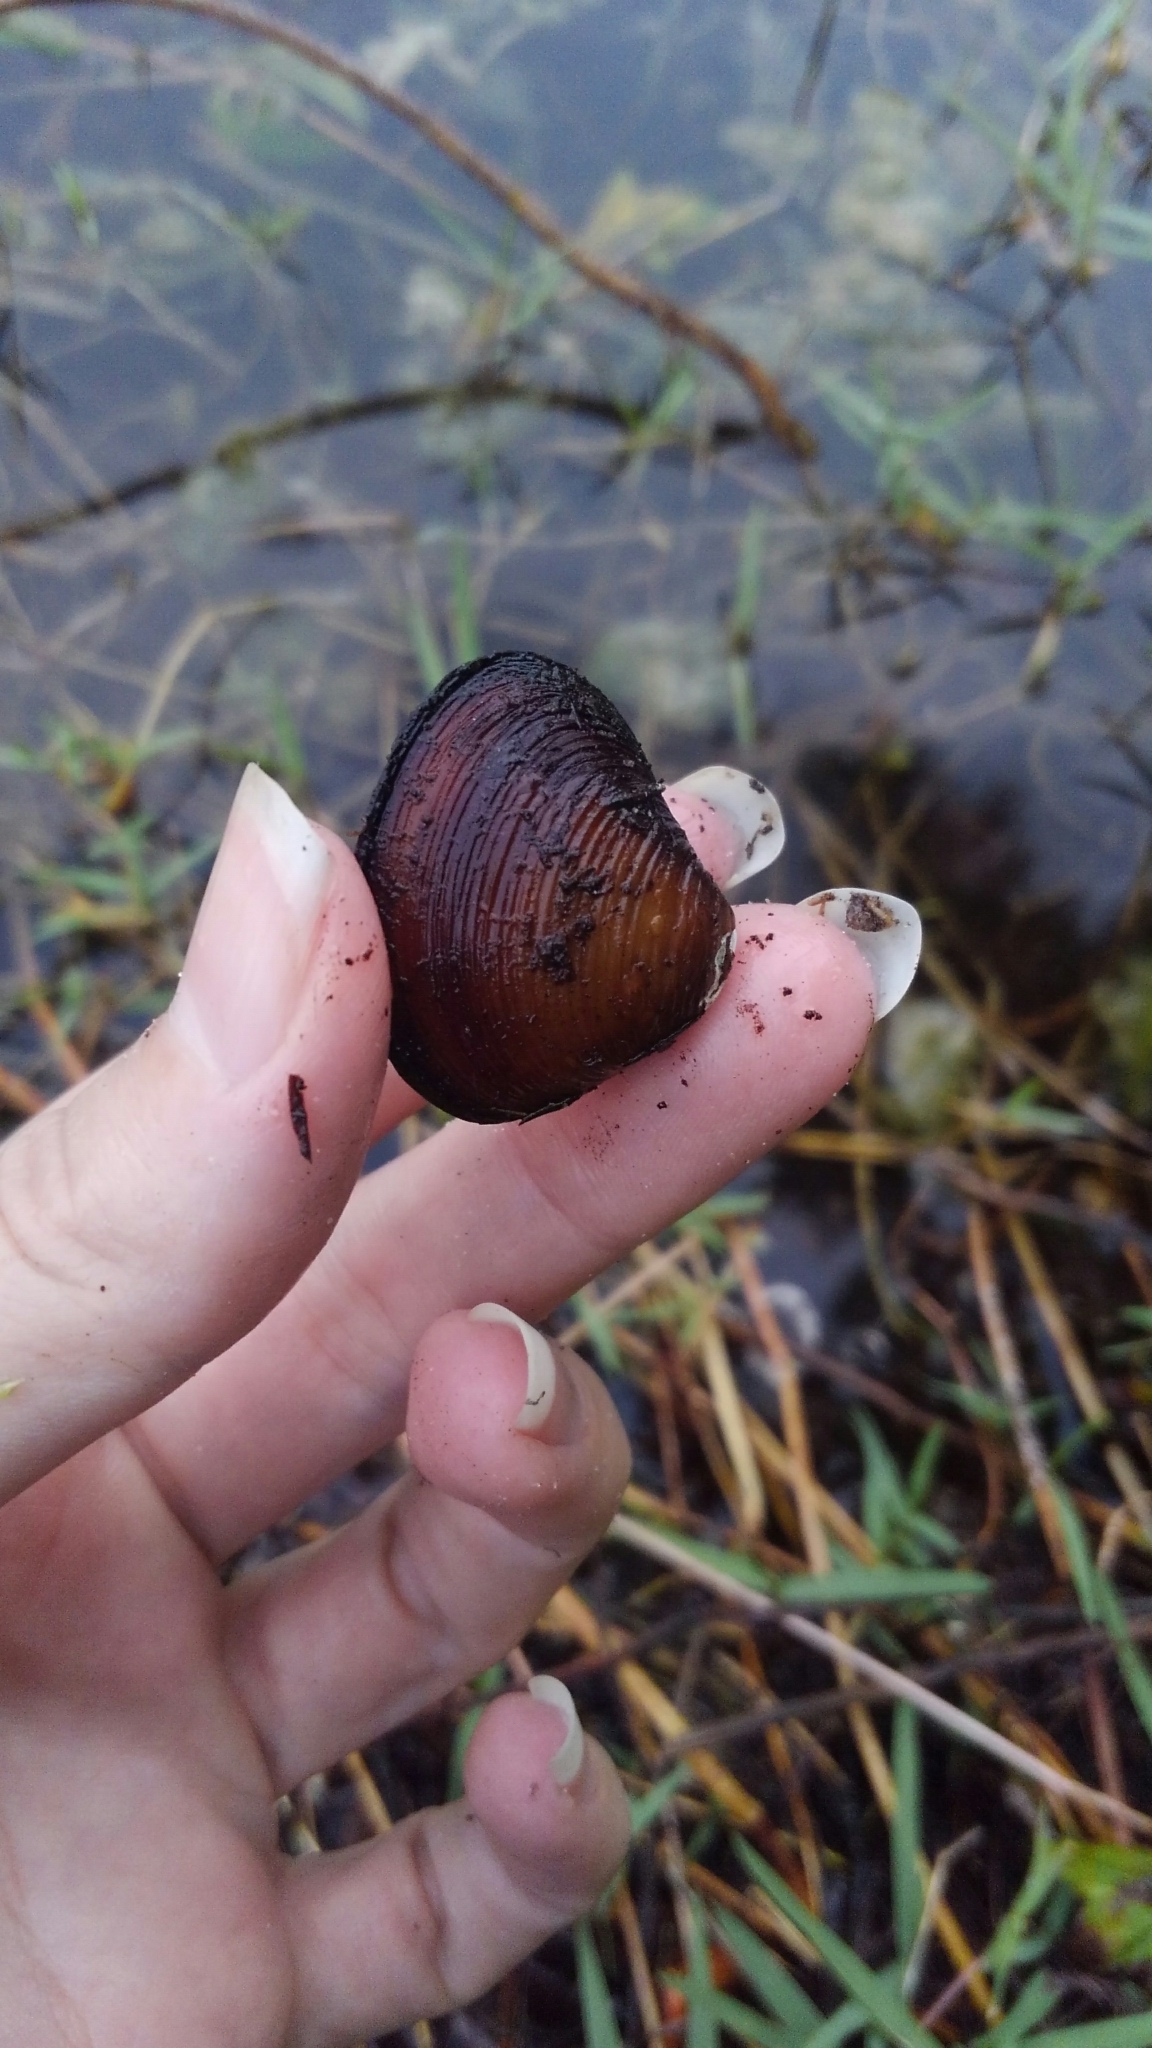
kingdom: Animalia
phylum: Mollusca
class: Bivalvia
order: Venerida
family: Cyrenidae
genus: Corbicula
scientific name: Corbicula fluminea
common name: Asian clam
